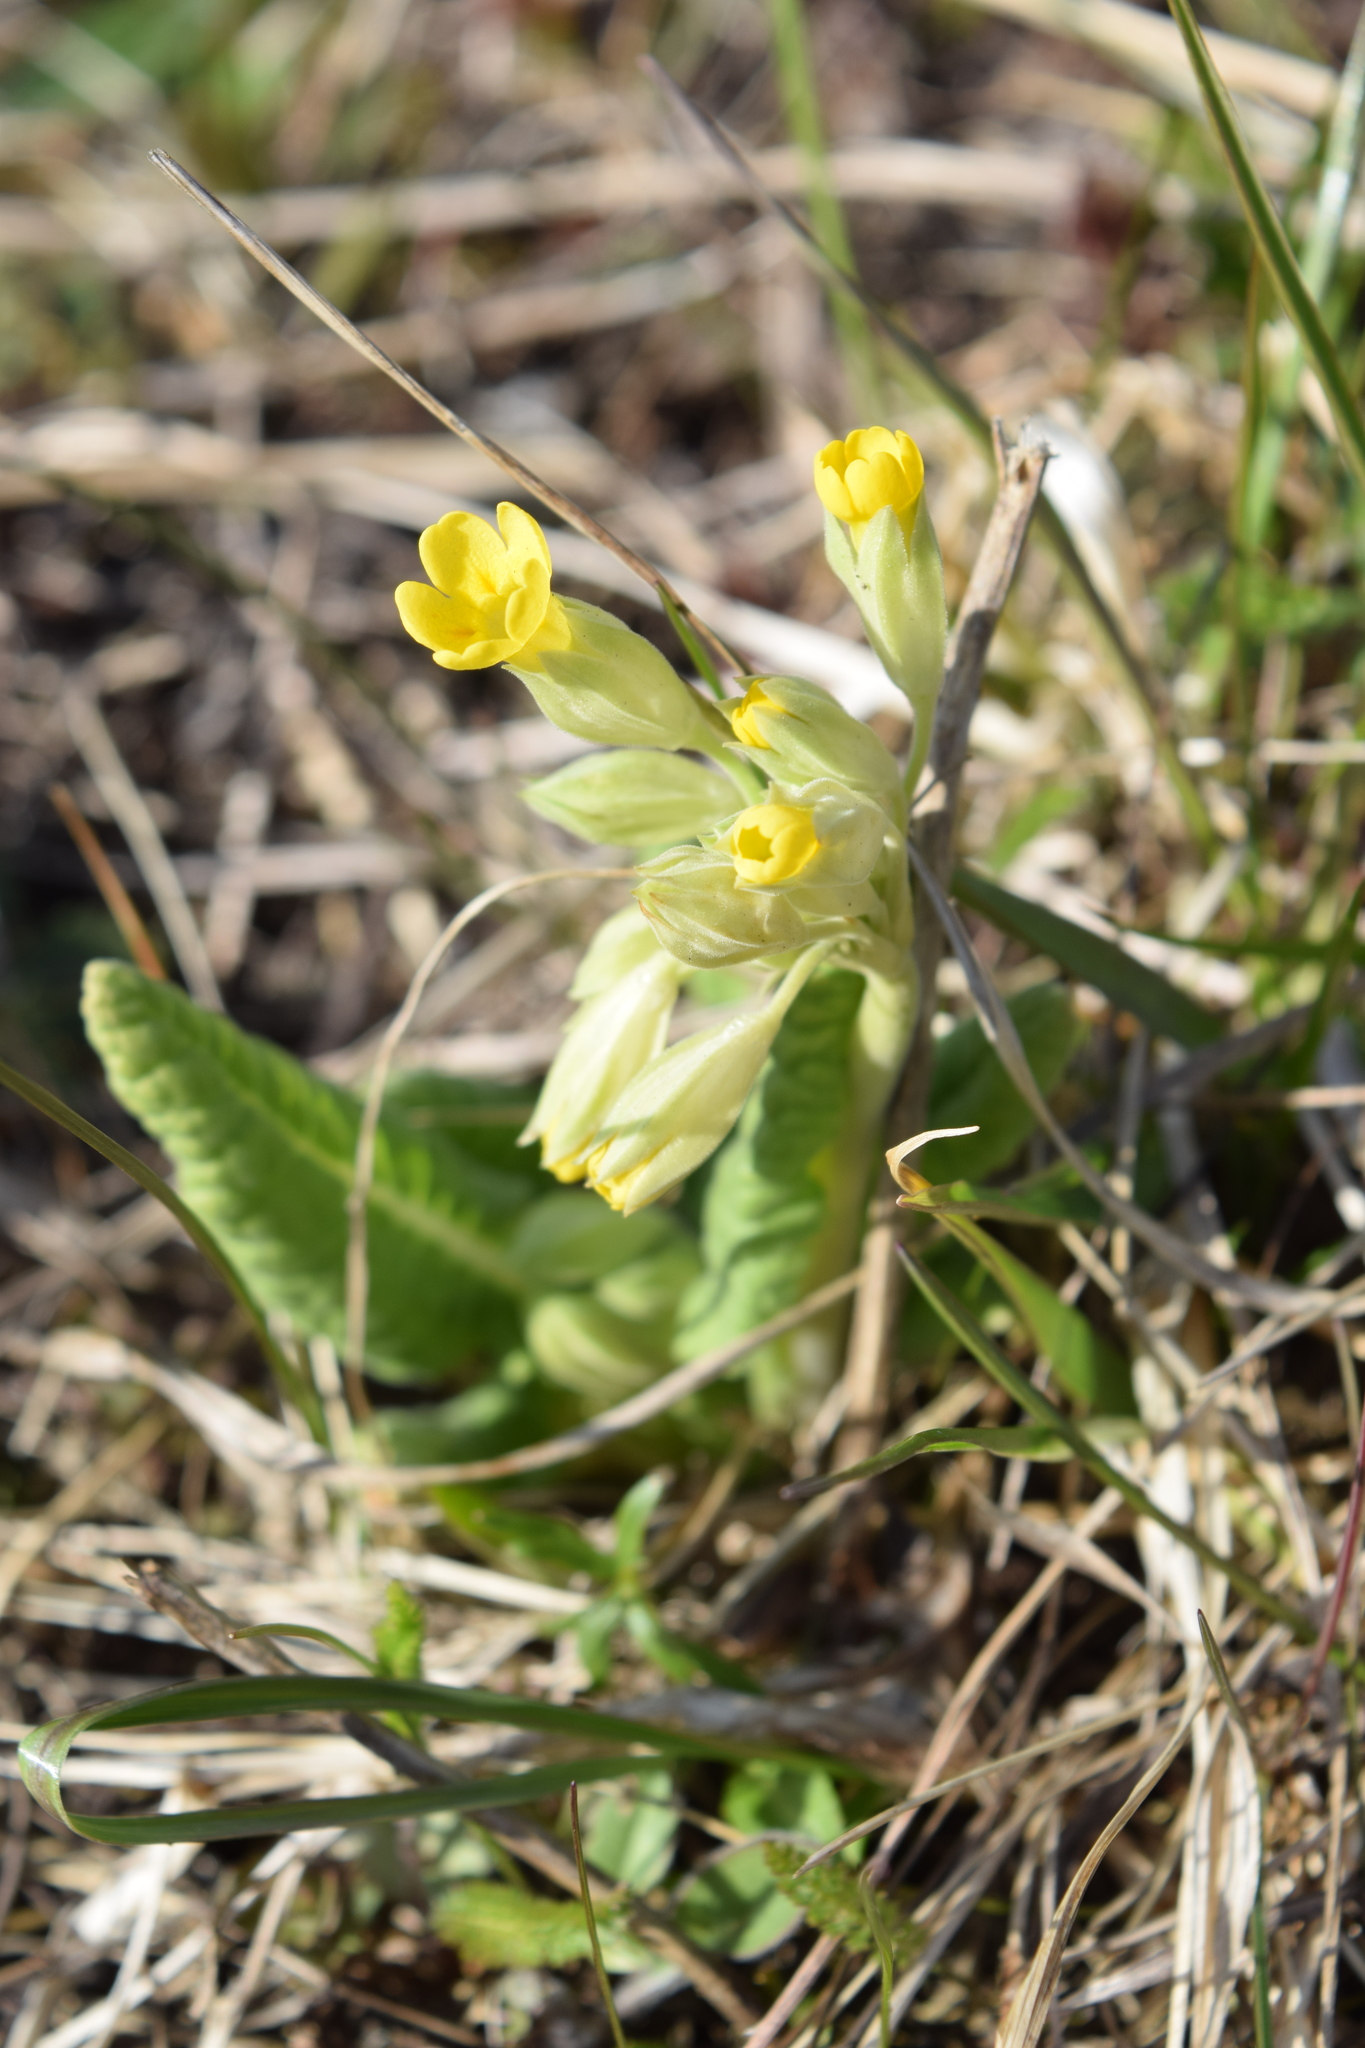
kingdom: Plantae
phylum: Tracheophyta
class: Magnoliopsida
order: Ericales
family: Primulaceae
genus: Primula
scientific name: Primula veris
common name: Cowslip
